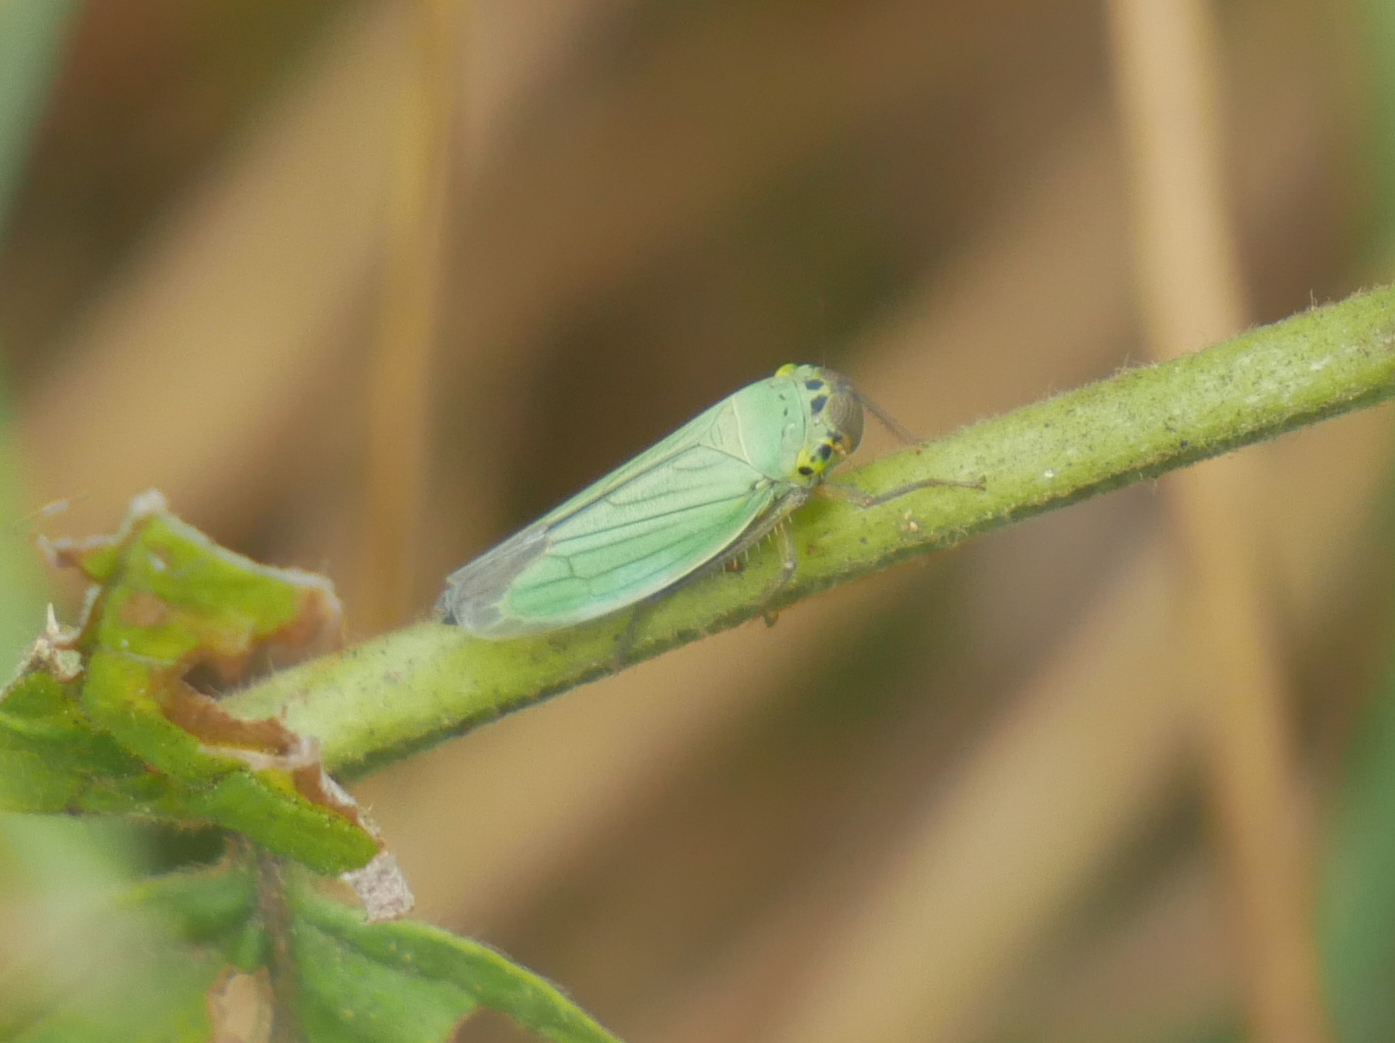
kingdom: Animalia
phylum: Arthropoda
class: Insecta
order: Hemiptera
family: Cicadellidae
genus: Cicadella
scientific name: Cicadella viridis
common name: Leafhopper
